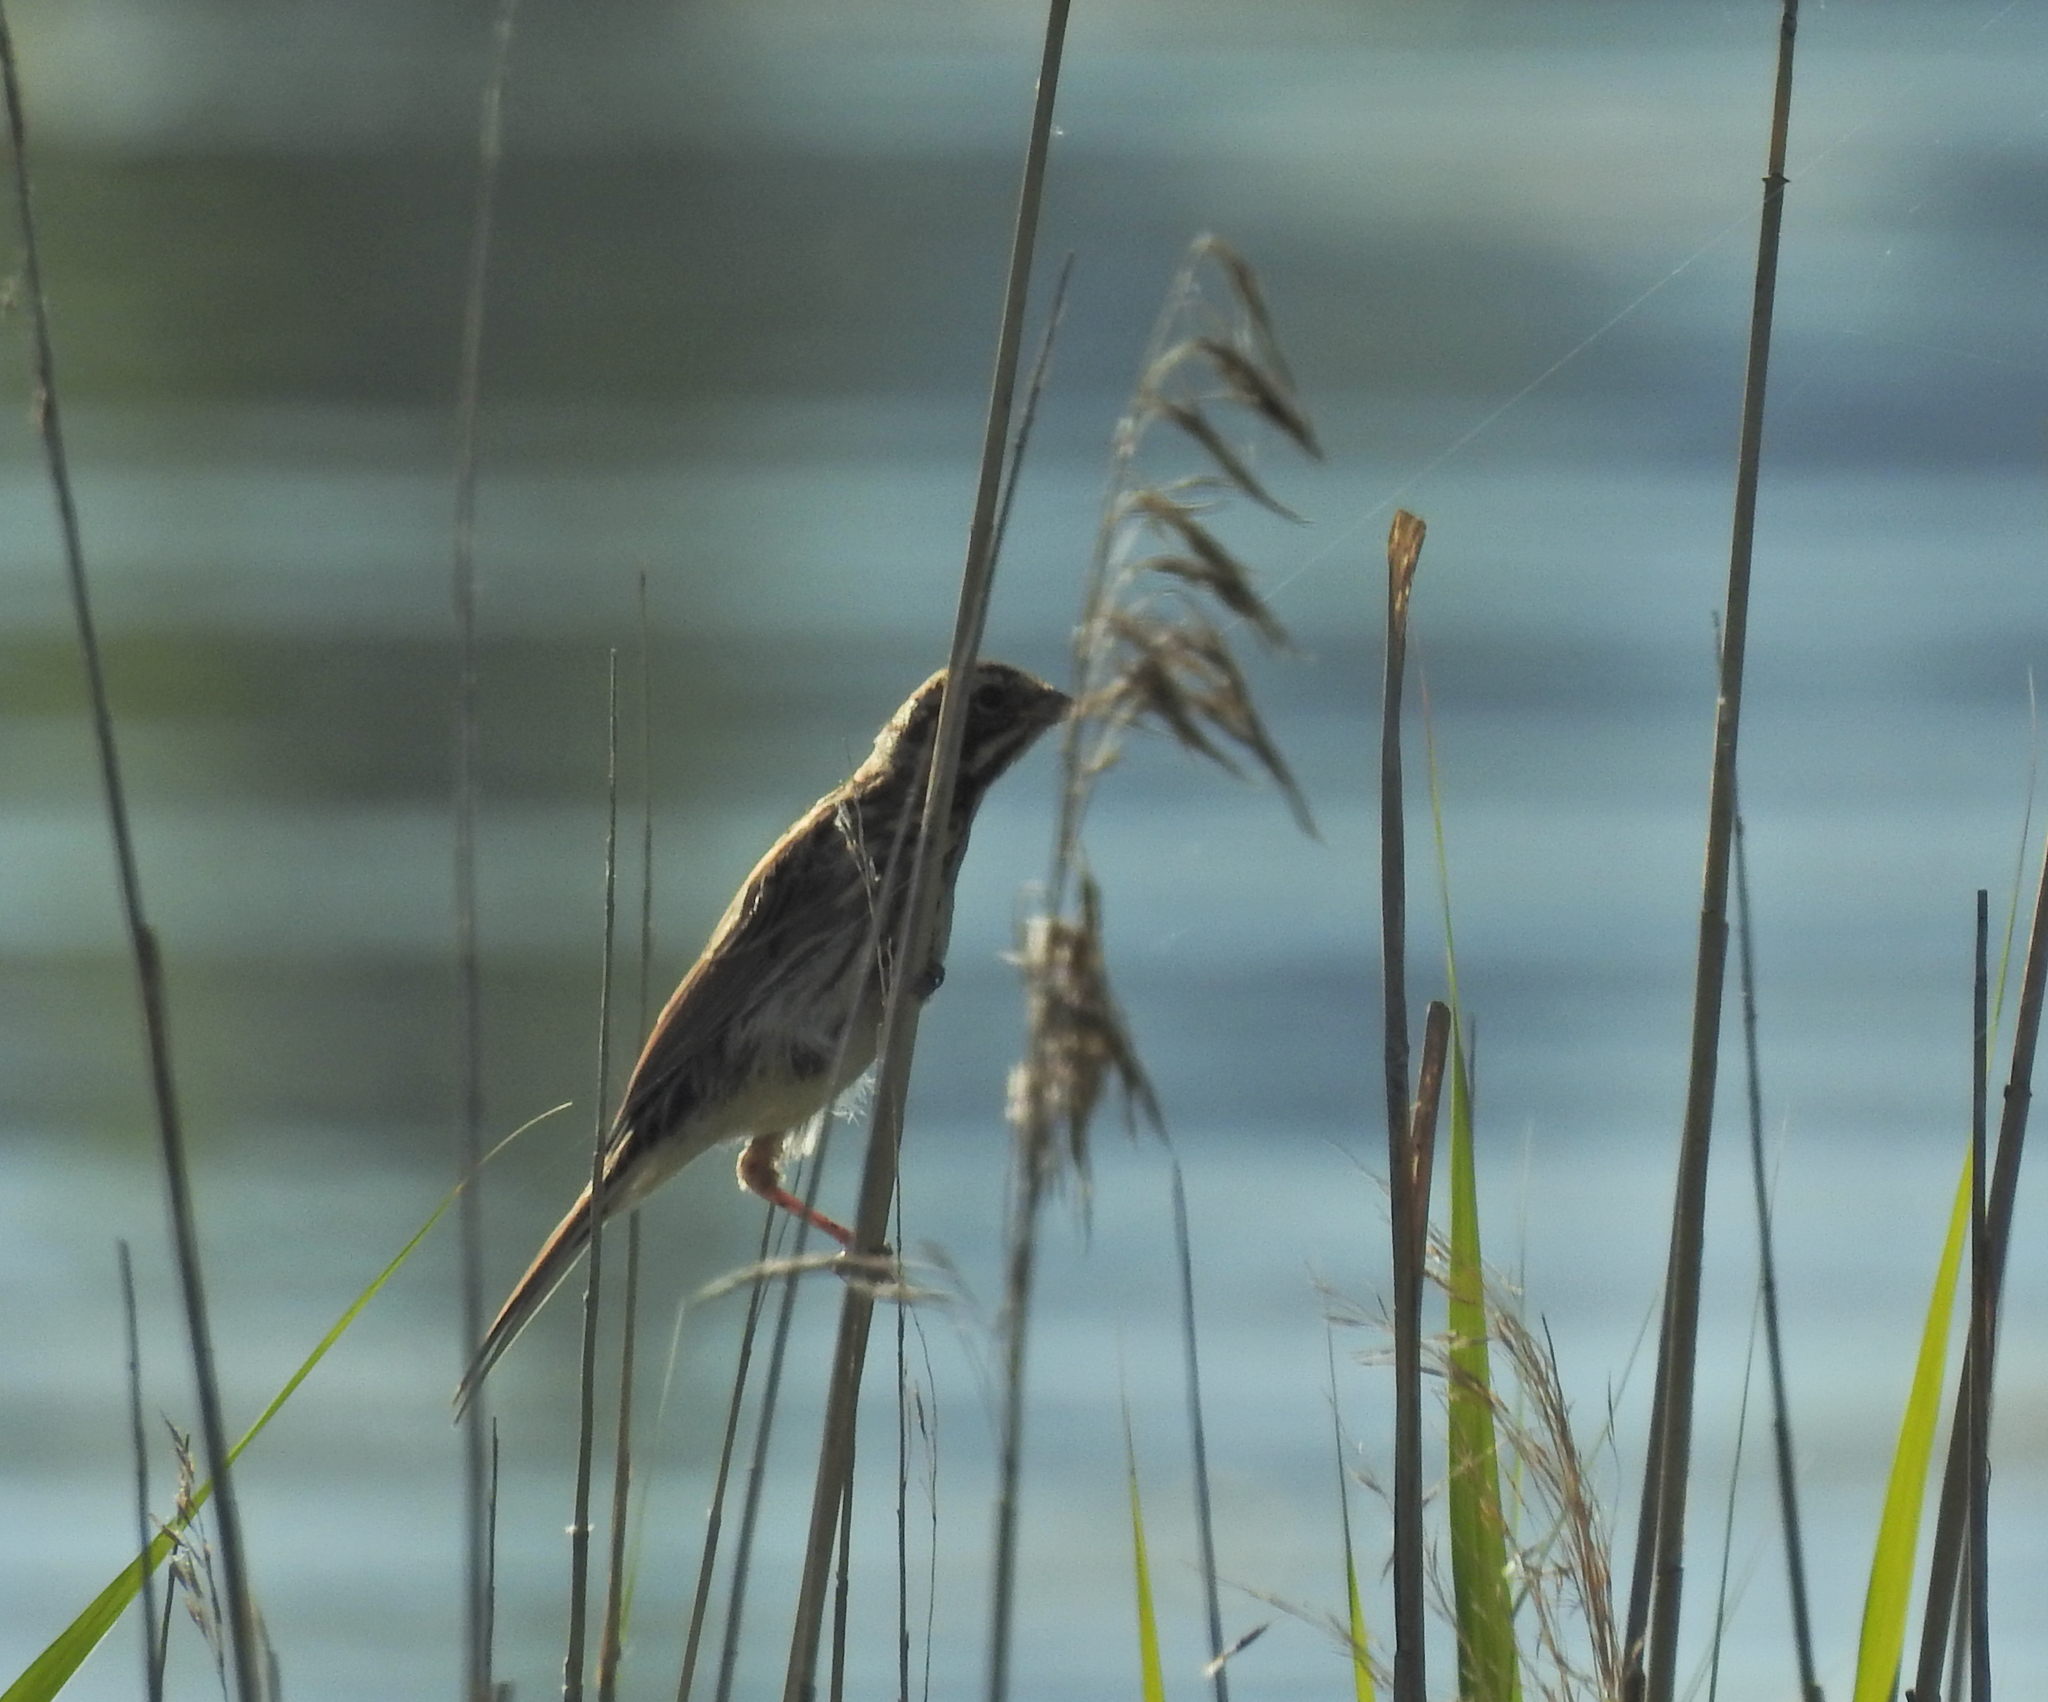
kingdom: Animalia
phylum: Chordata
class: Aves
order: Passeriformes
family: Emberizidae
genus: Emberiza
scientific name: Emberiza schoeniclus
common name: Reed bunting
